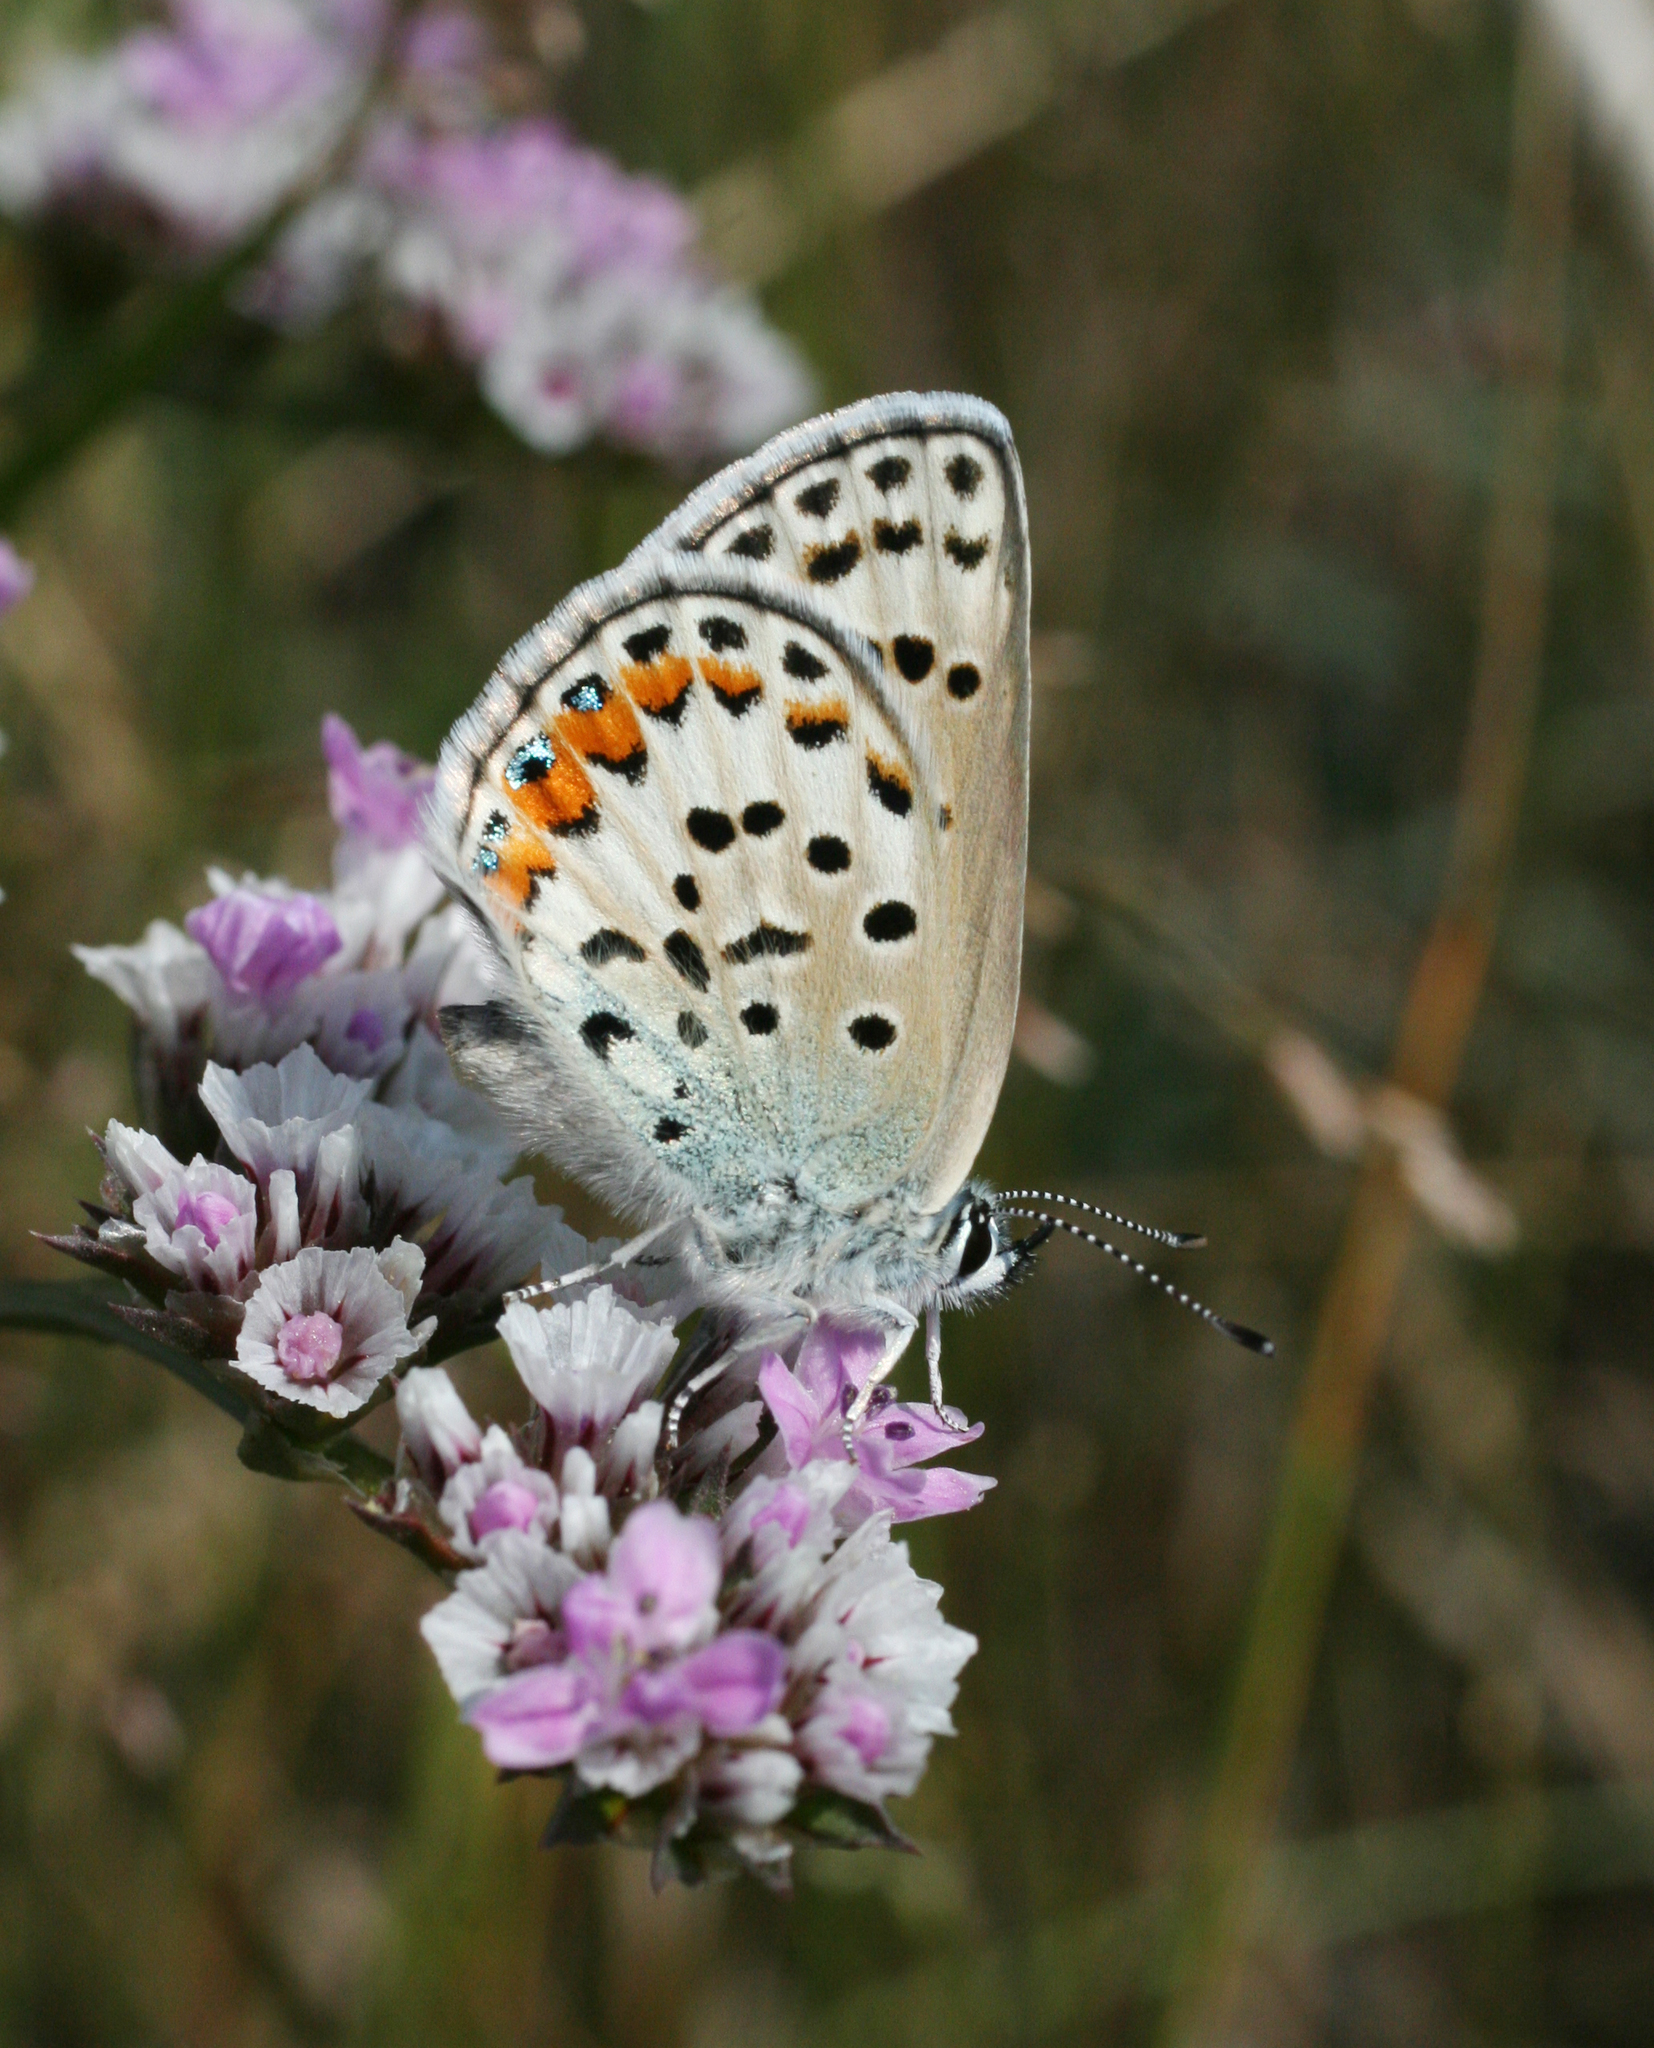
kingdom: Animalia
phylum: Arthropoda
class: Insecta
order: Lepidoptera
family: Lycaenidae
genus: Glabroculus
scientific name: Glabroculus cyane
